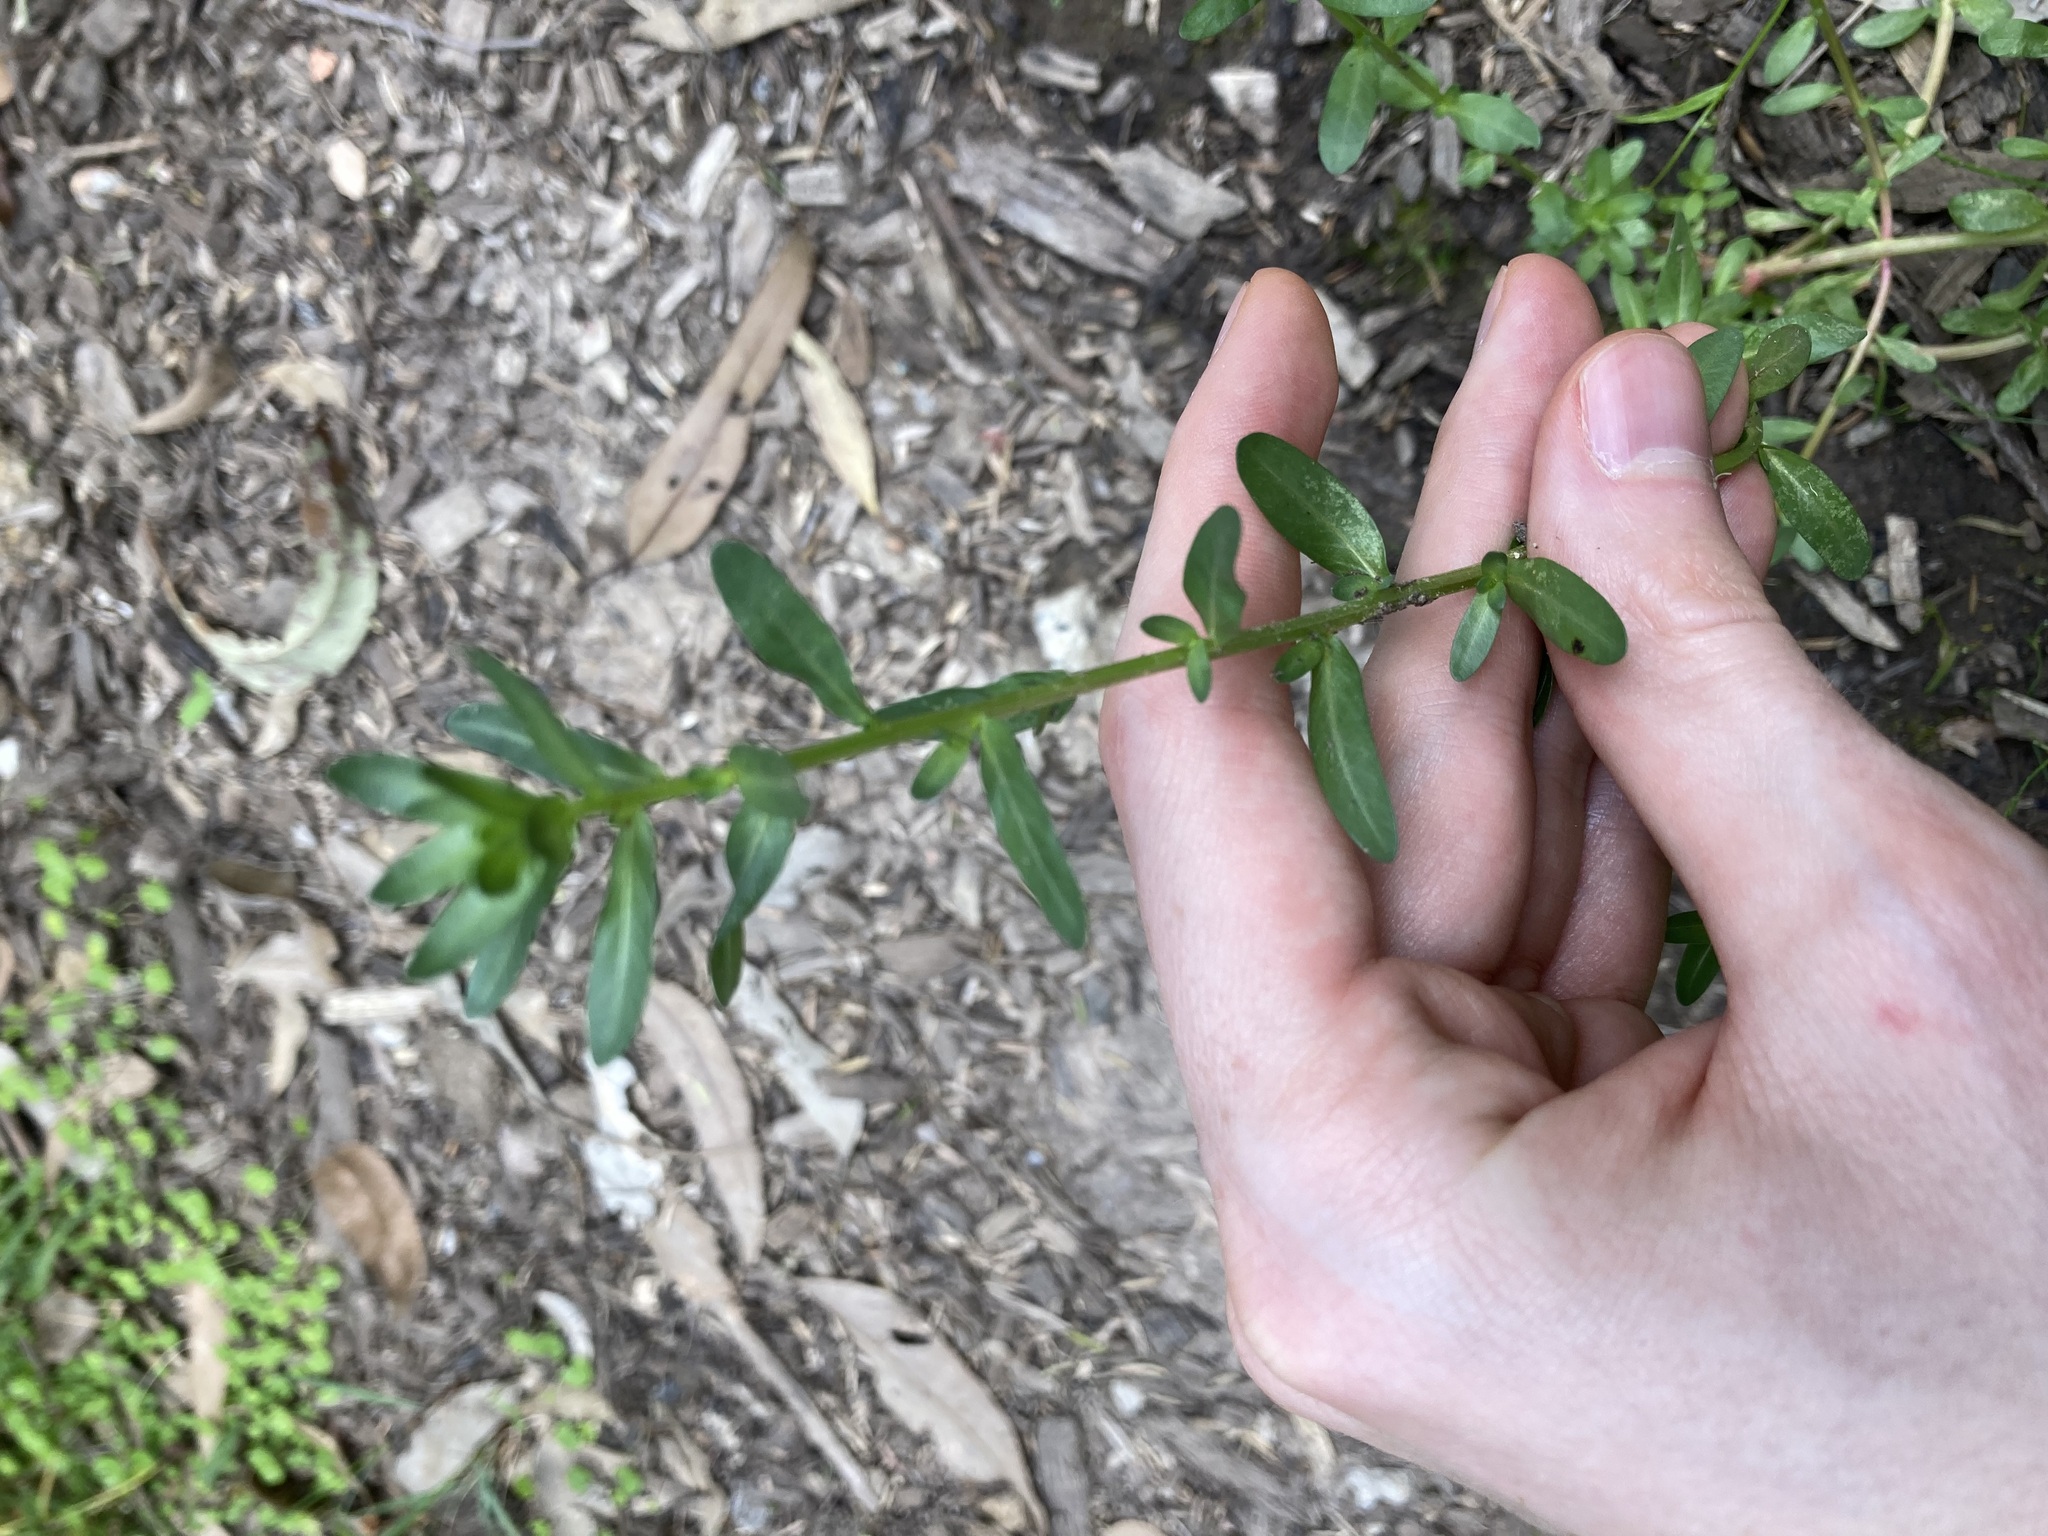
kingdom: Plantae
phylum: Tracheophyta
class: Magnoliopsida
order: Myrtales
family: Lythraceae
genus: Lythrum
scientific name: Lythrum hyssopifolia
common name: Grass-poly
